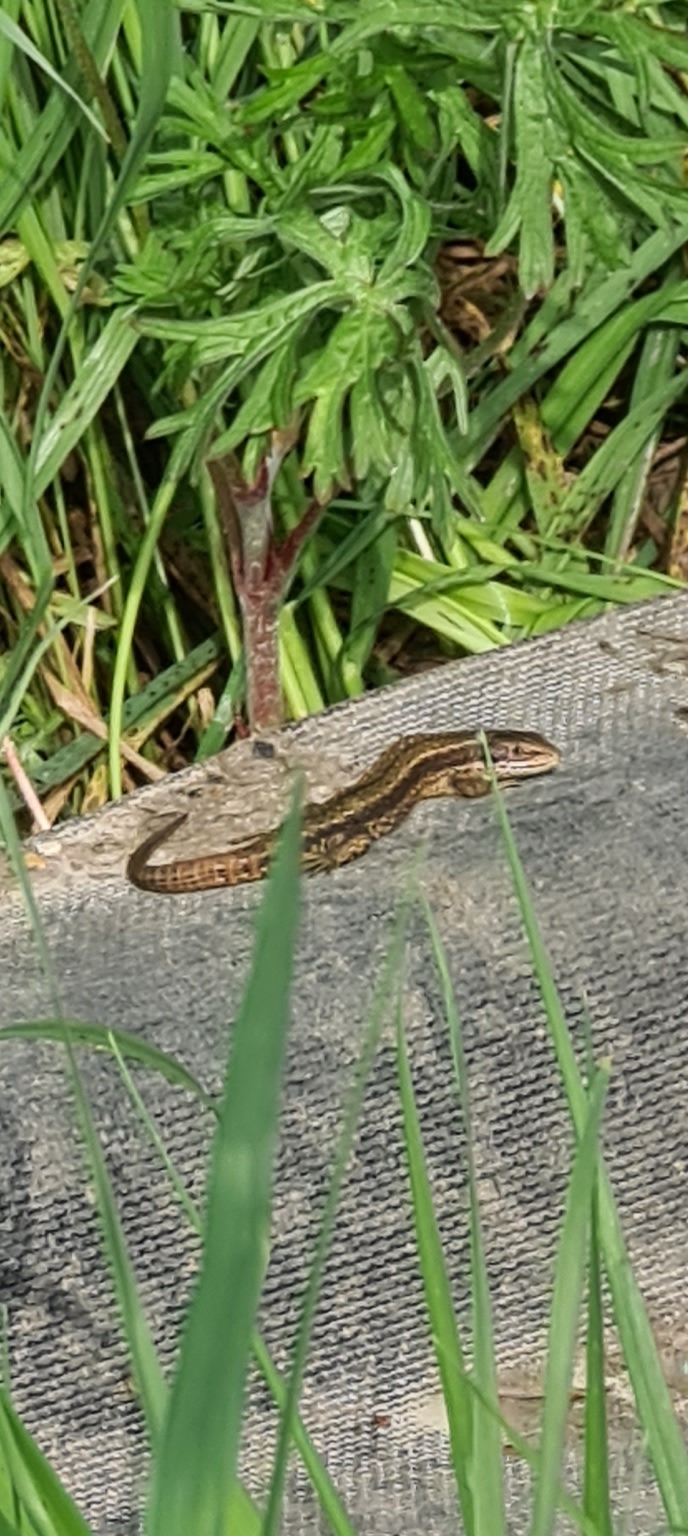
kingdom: Animalia
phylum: Chordata
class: Squamata
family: Lacertidae
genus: Zootoca
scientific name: Zootoca vivipara
